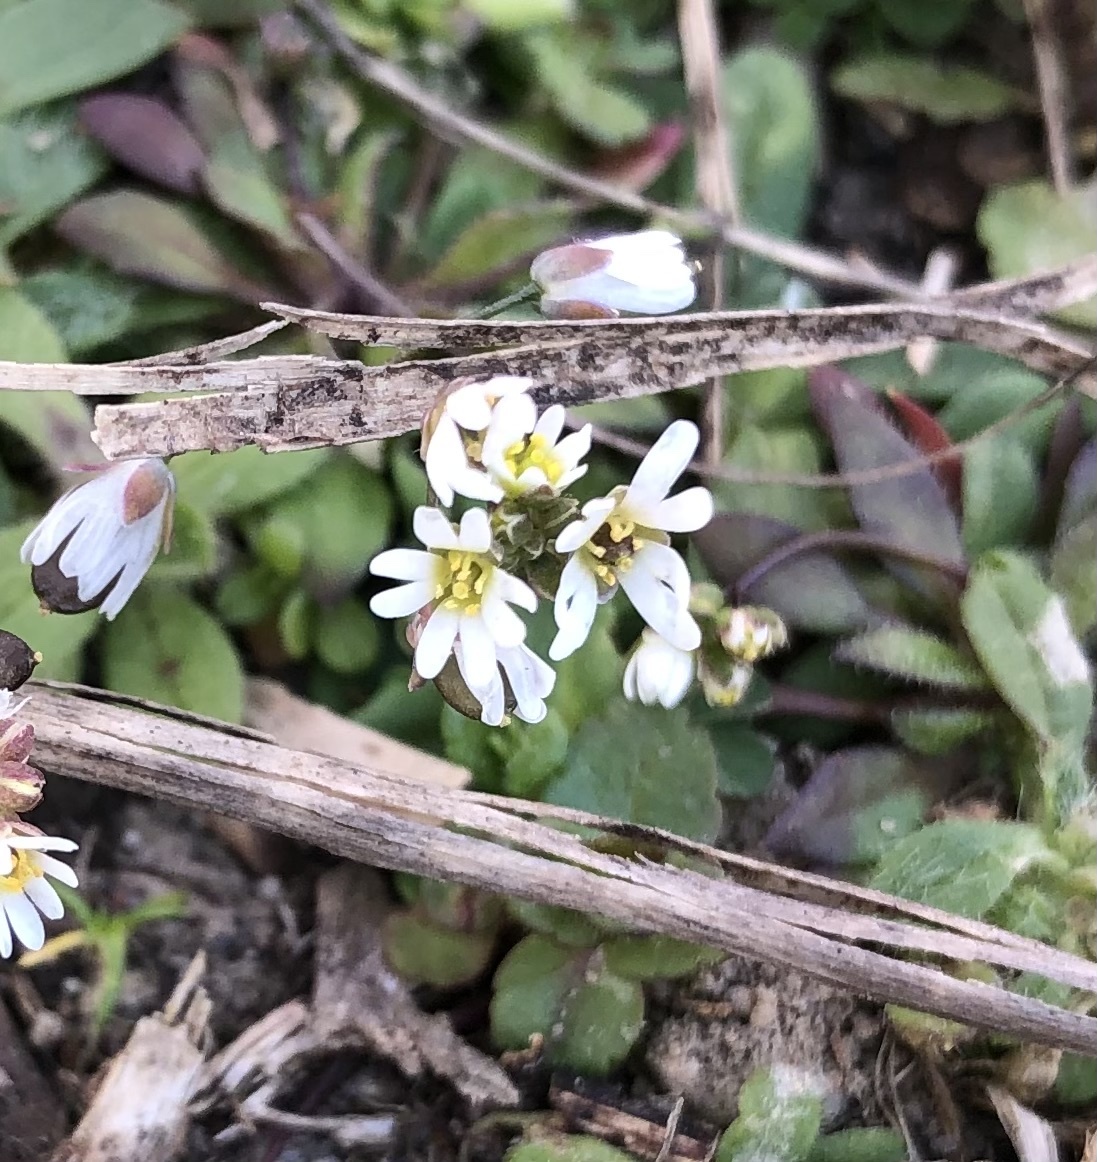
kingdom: Plantae
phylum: Tracheophyta
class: Magnoliopsida
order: Brassicales
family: Brassicaceae
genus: Draba
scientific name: Draba verna
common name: Spring draba
